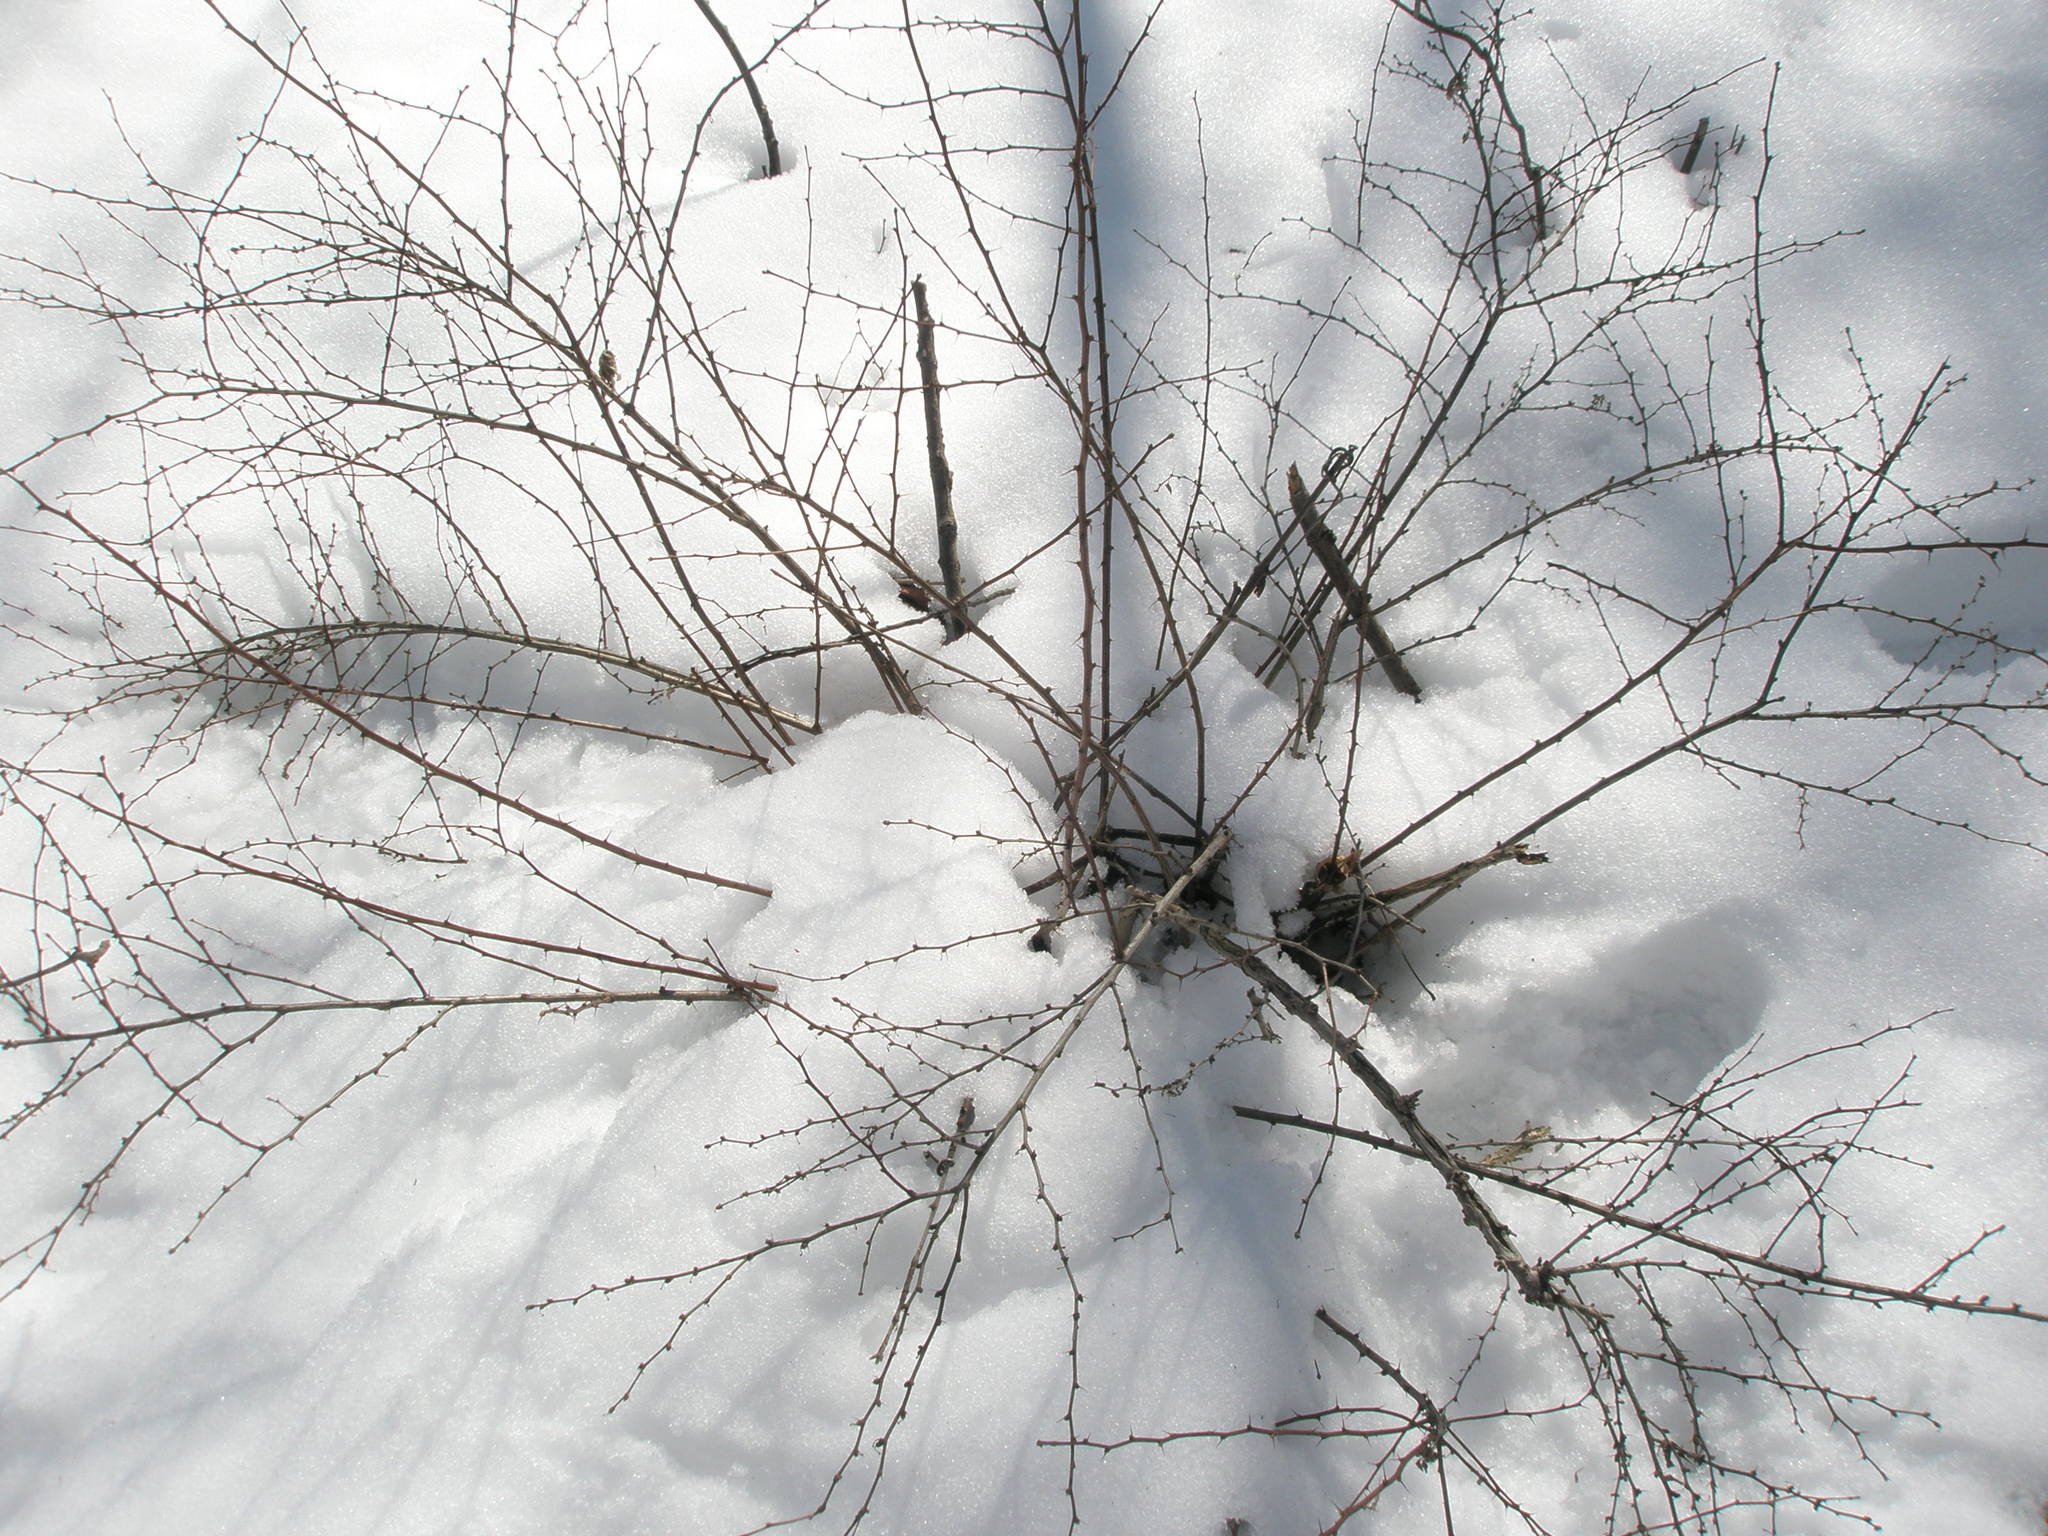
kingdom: Plantae
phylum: Tracheophyta
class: Magnoliopsida
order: Ranunculales
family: Berberidaceae
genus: Berberis
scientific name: Berberis thunbergii
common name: Japanese barberry
